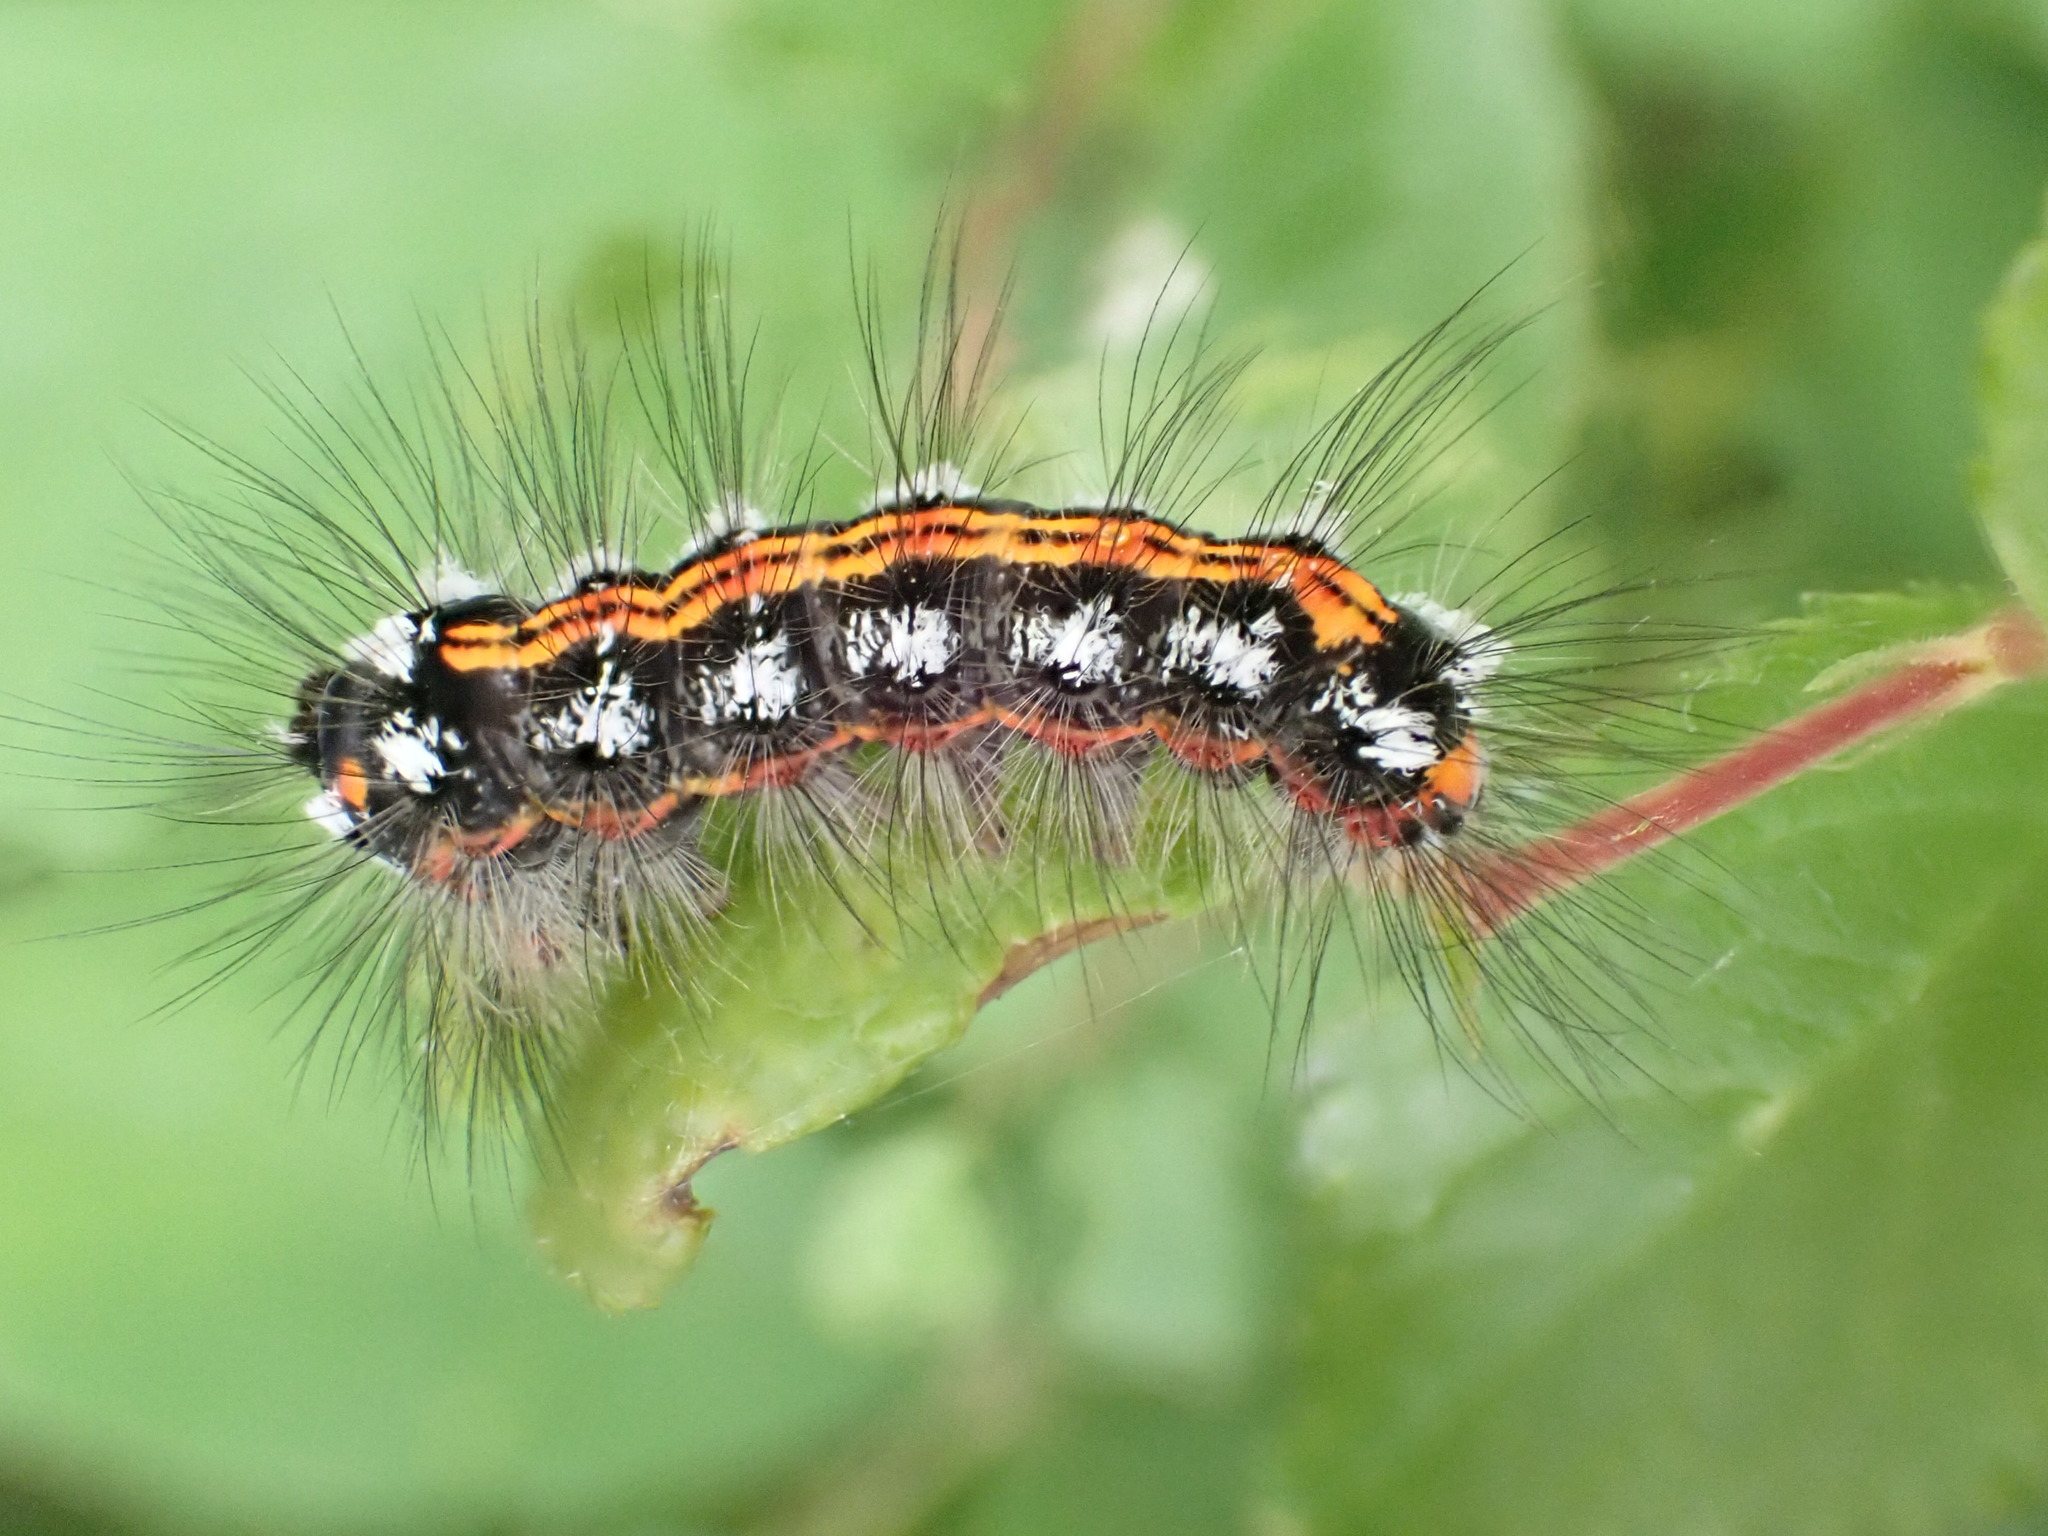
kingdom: Animalia
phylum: Arthropoda
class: Insecta
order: Lepidoptera
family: Erebidae
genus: Sphrageidus
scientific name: Sphrageidus similis
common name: Yellow-tail
